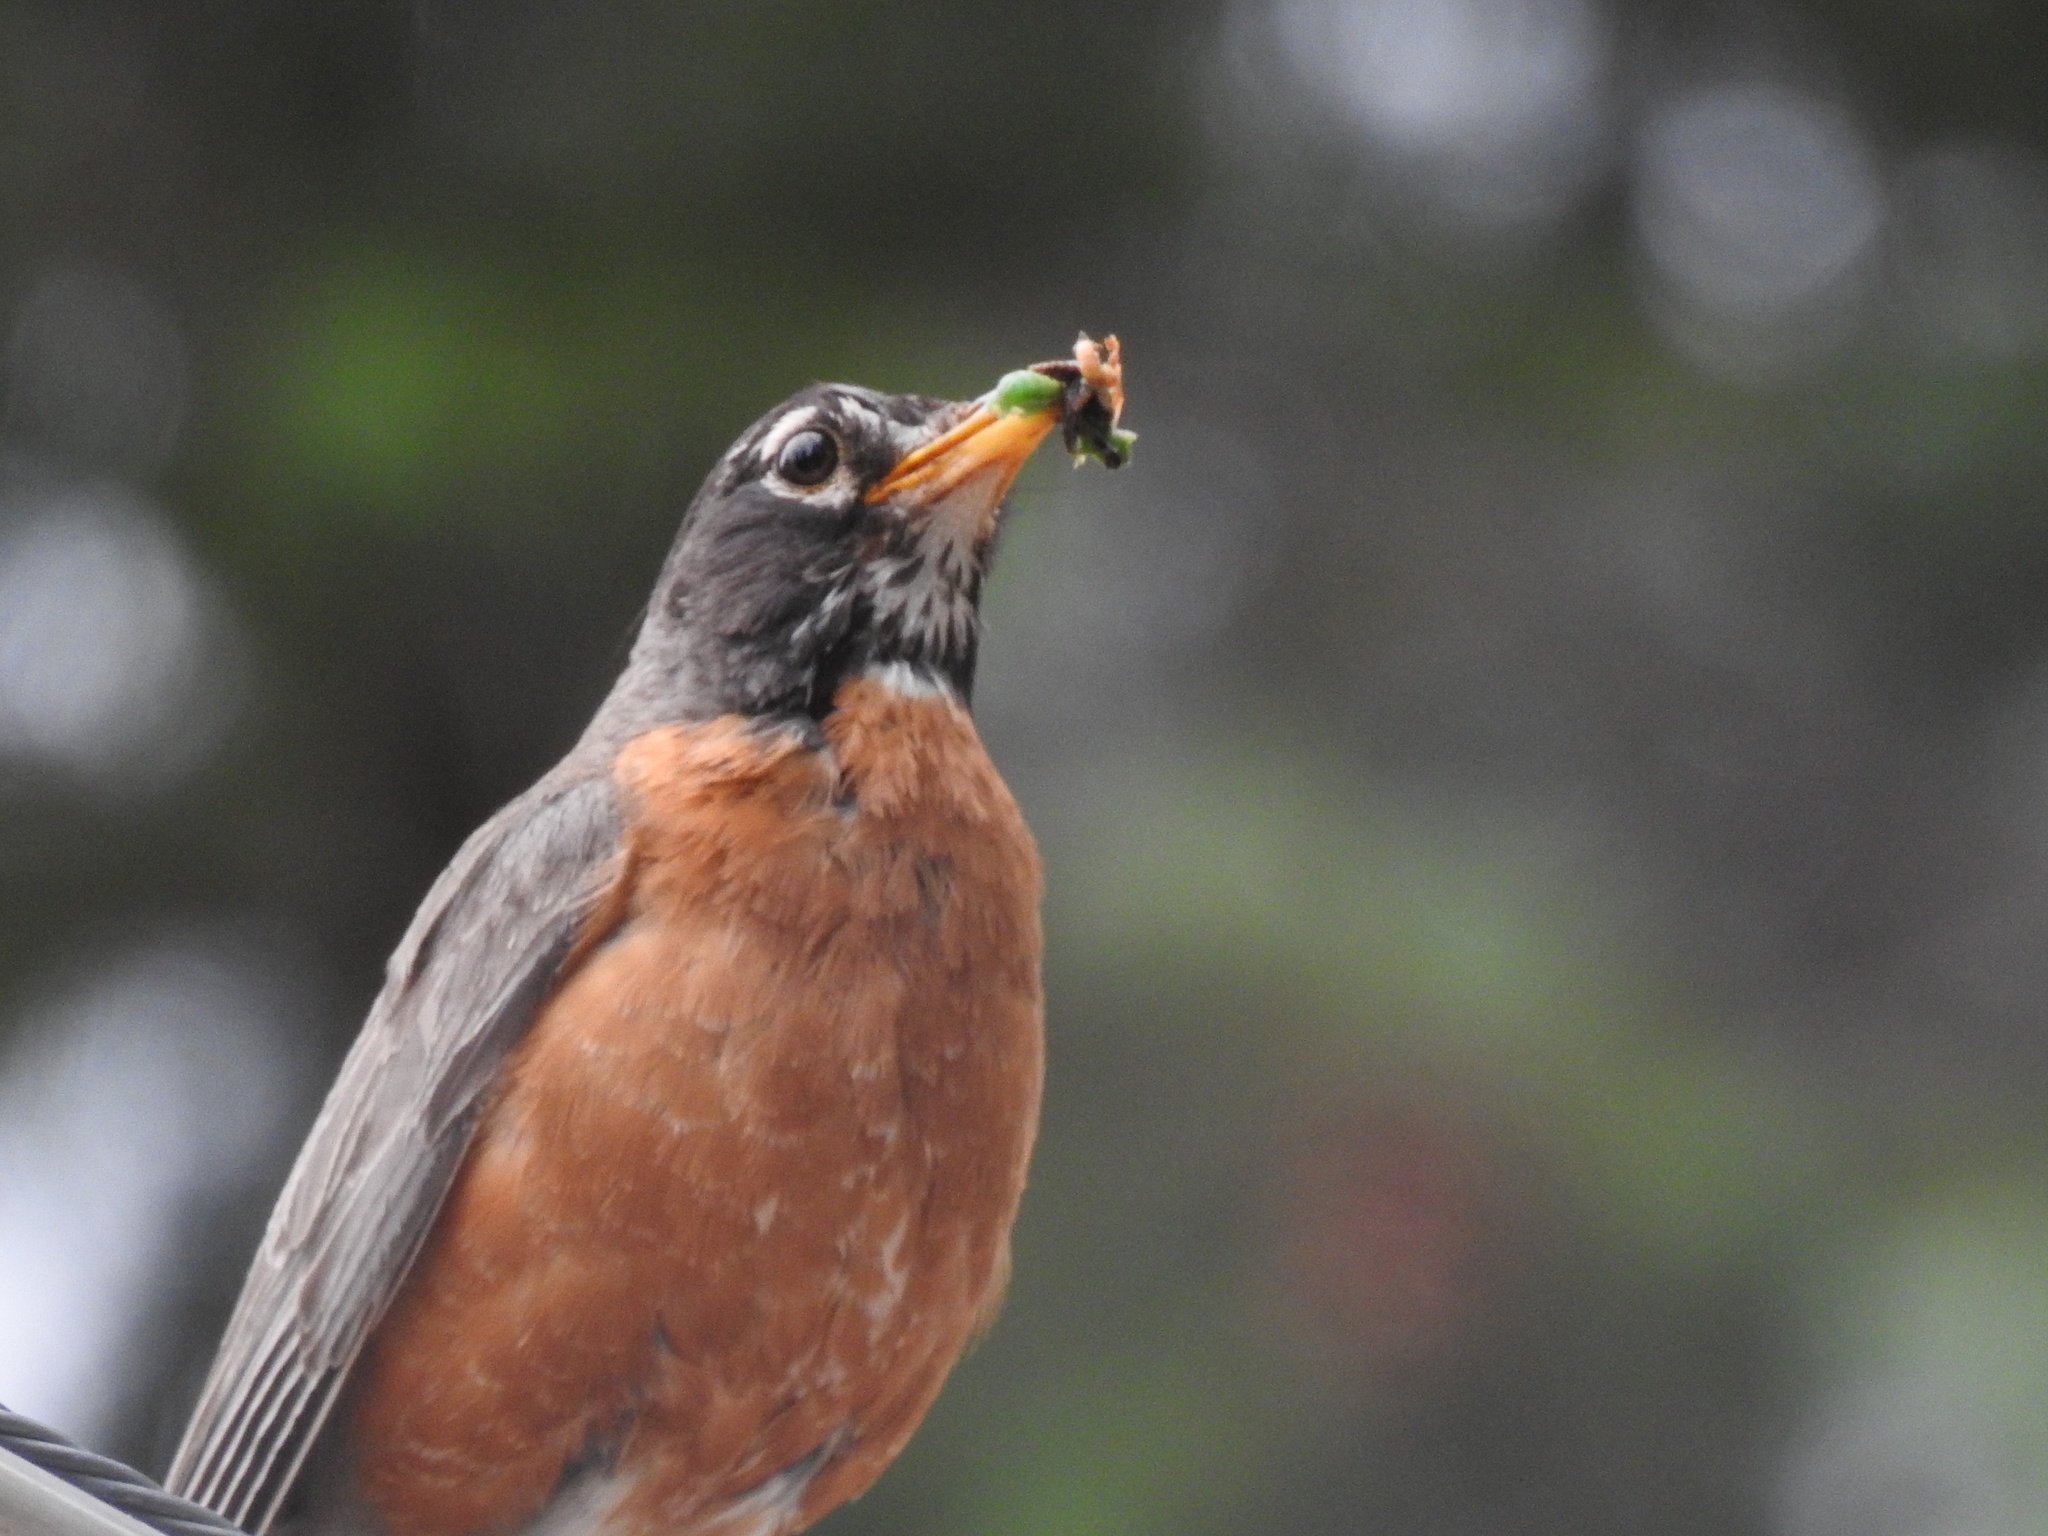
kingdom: Animalia
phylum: Chordata
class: Aves
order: Passeriformes
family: Turdidae
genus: Turdus
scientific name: Turdus migratorius
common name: American robin
